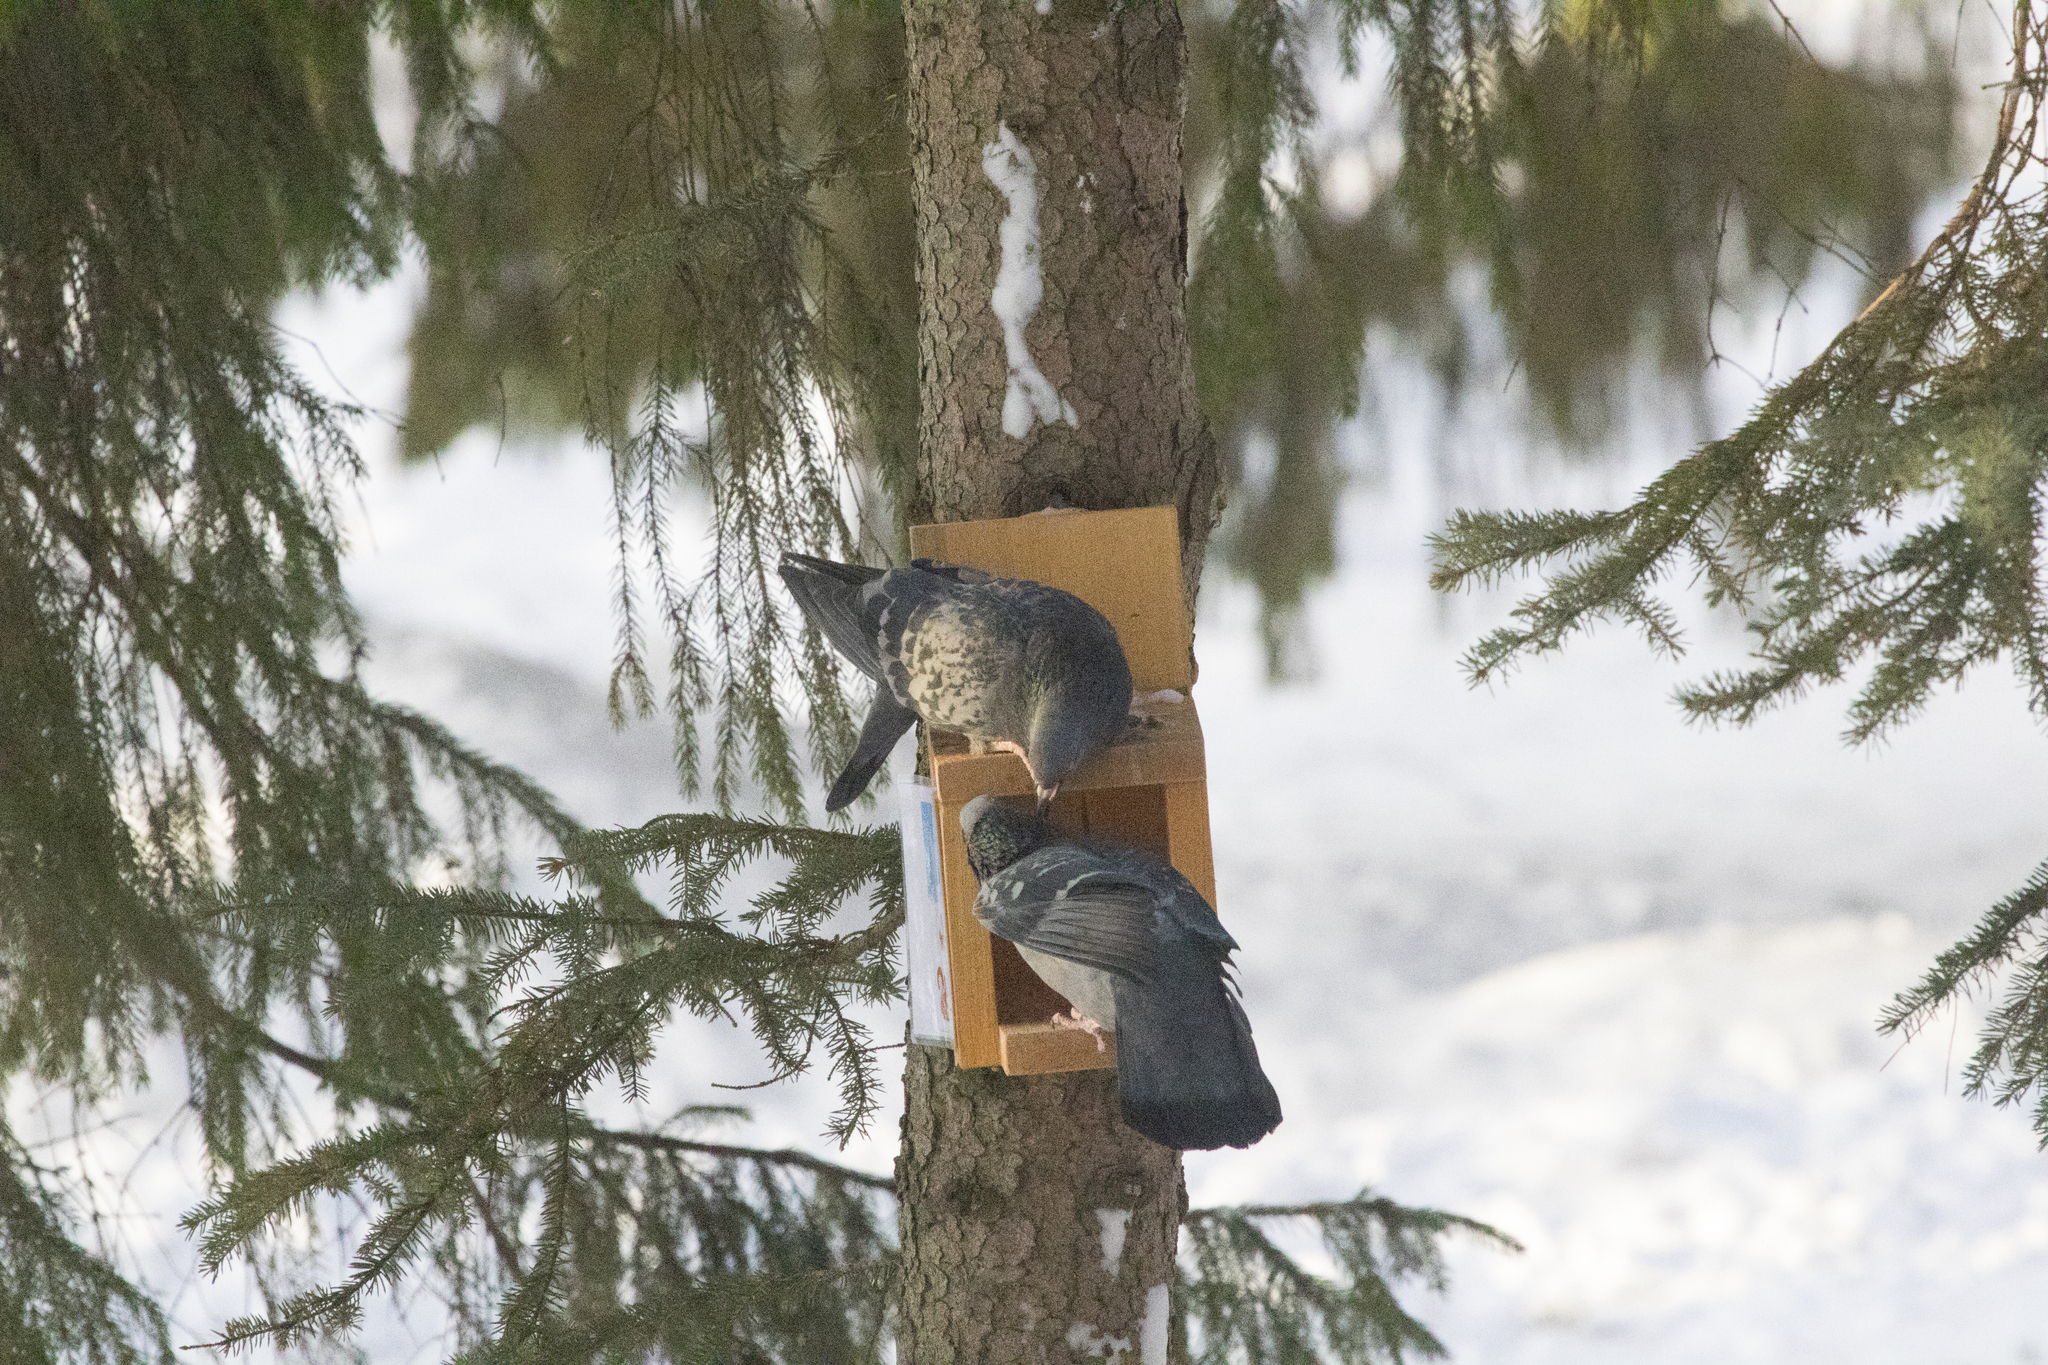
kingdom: Animalia
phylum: Chordata
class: Aves
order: Columbiformes
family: Columbidae
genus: Columba
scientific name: Columba livia
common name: Rock pigeon
